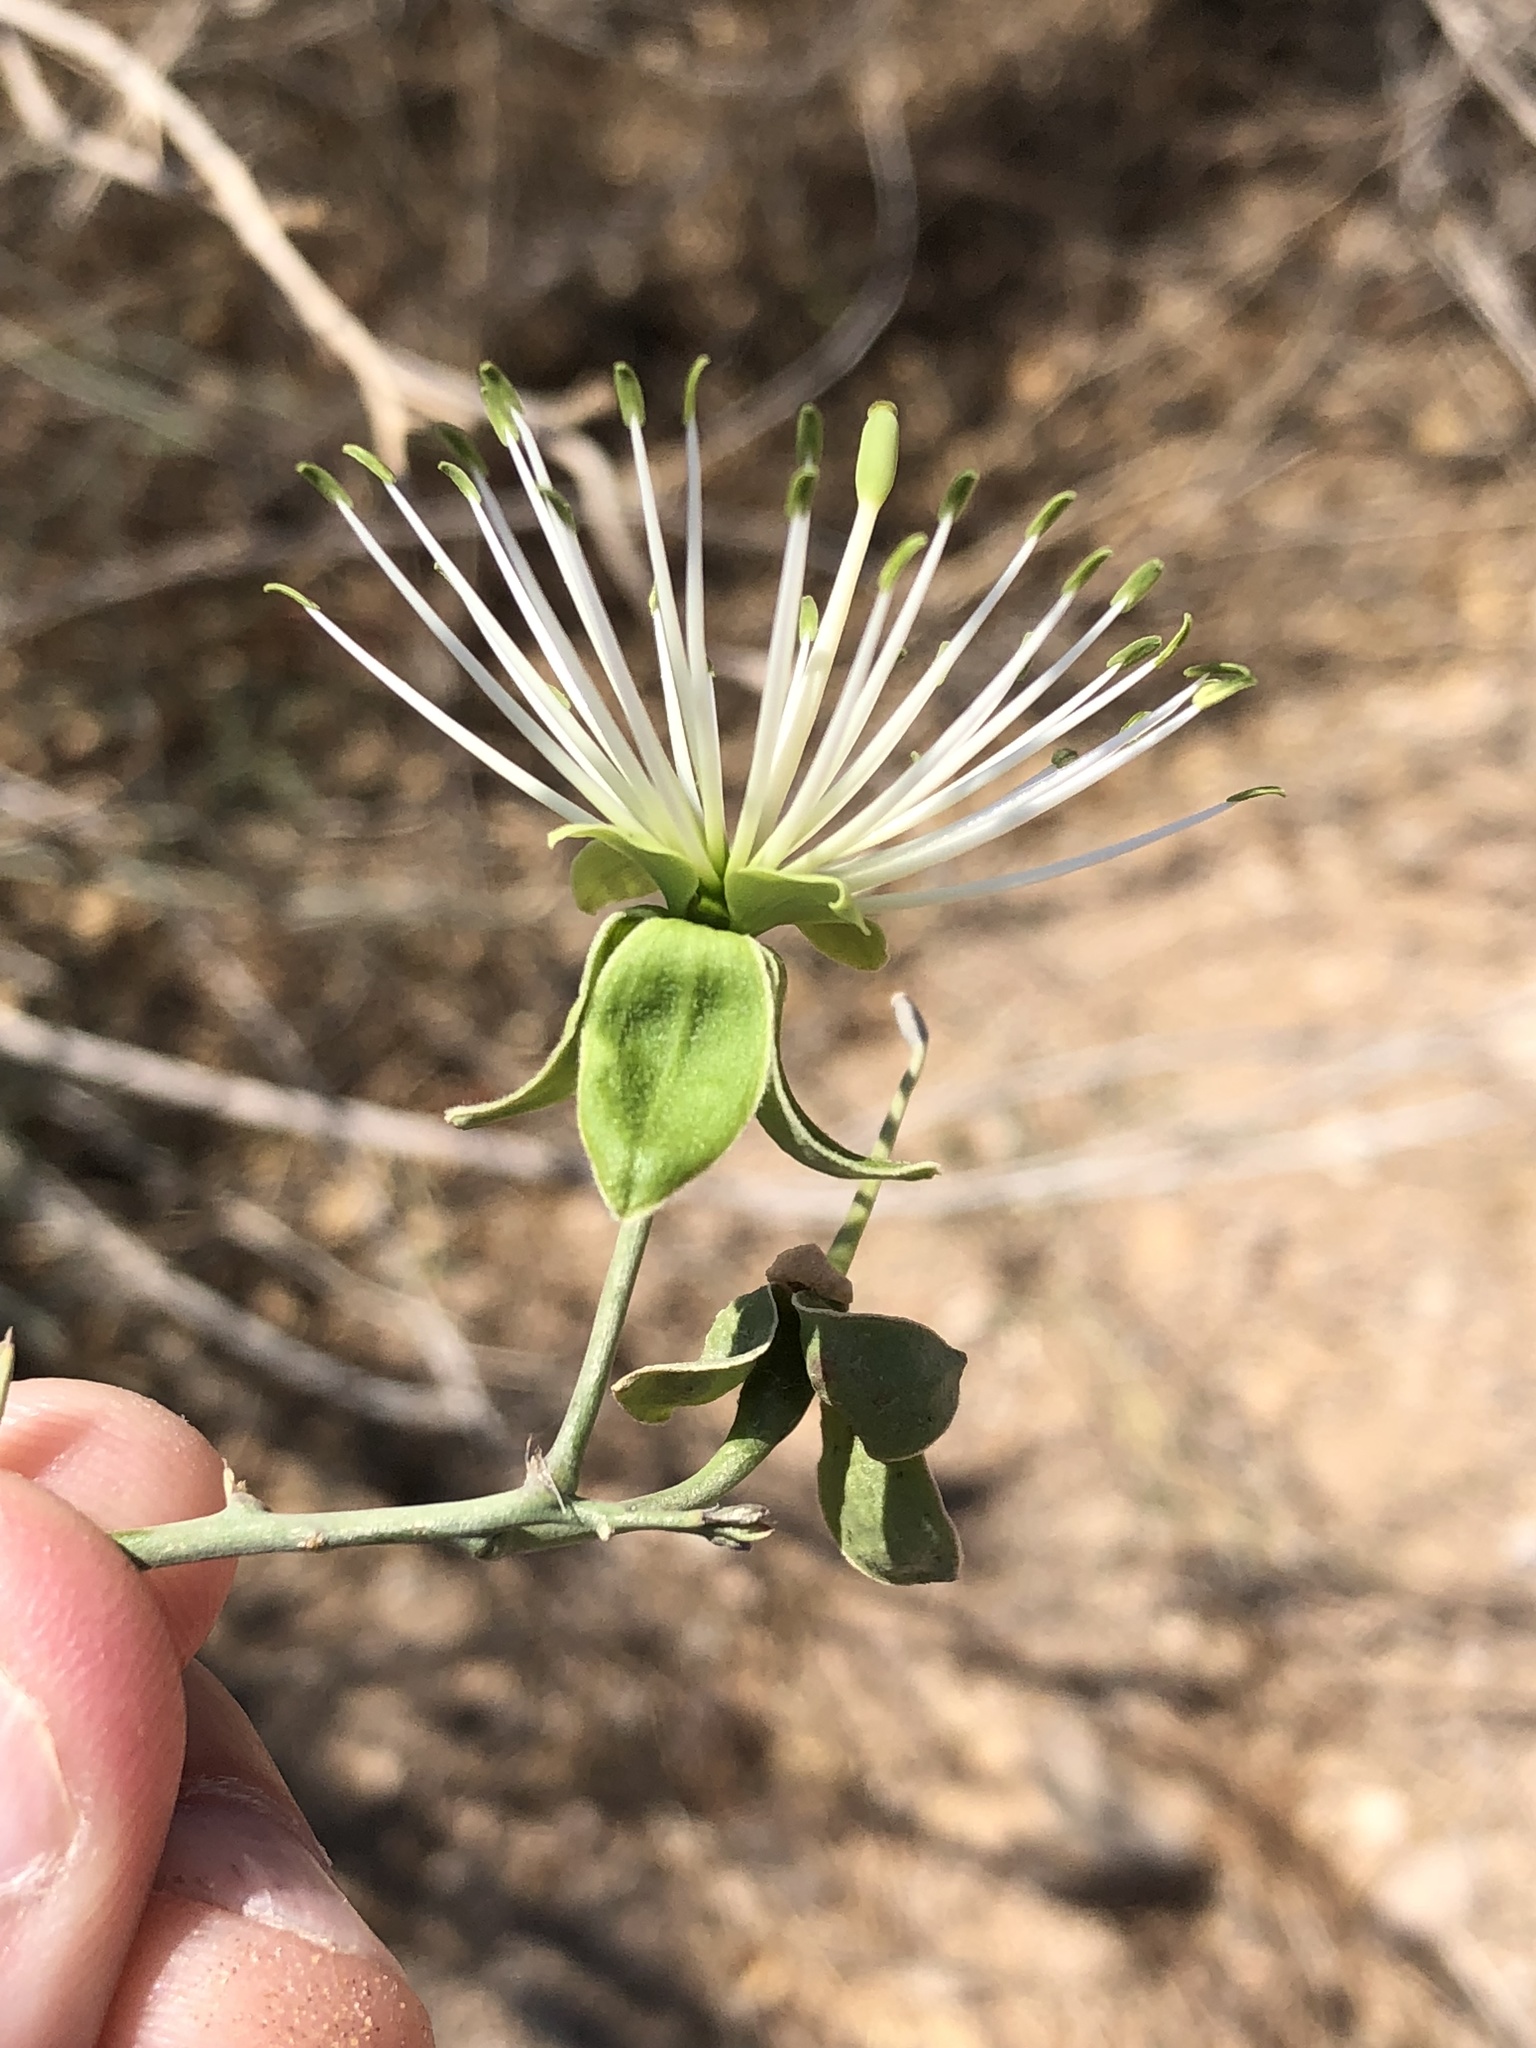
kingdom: Plantae
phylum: Tracheophyta
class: Magnoliopsida
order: Brassicales
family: Capparaceae
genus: Maerua
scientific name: Maerua juncea
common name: Rough-skinned bush cherry
